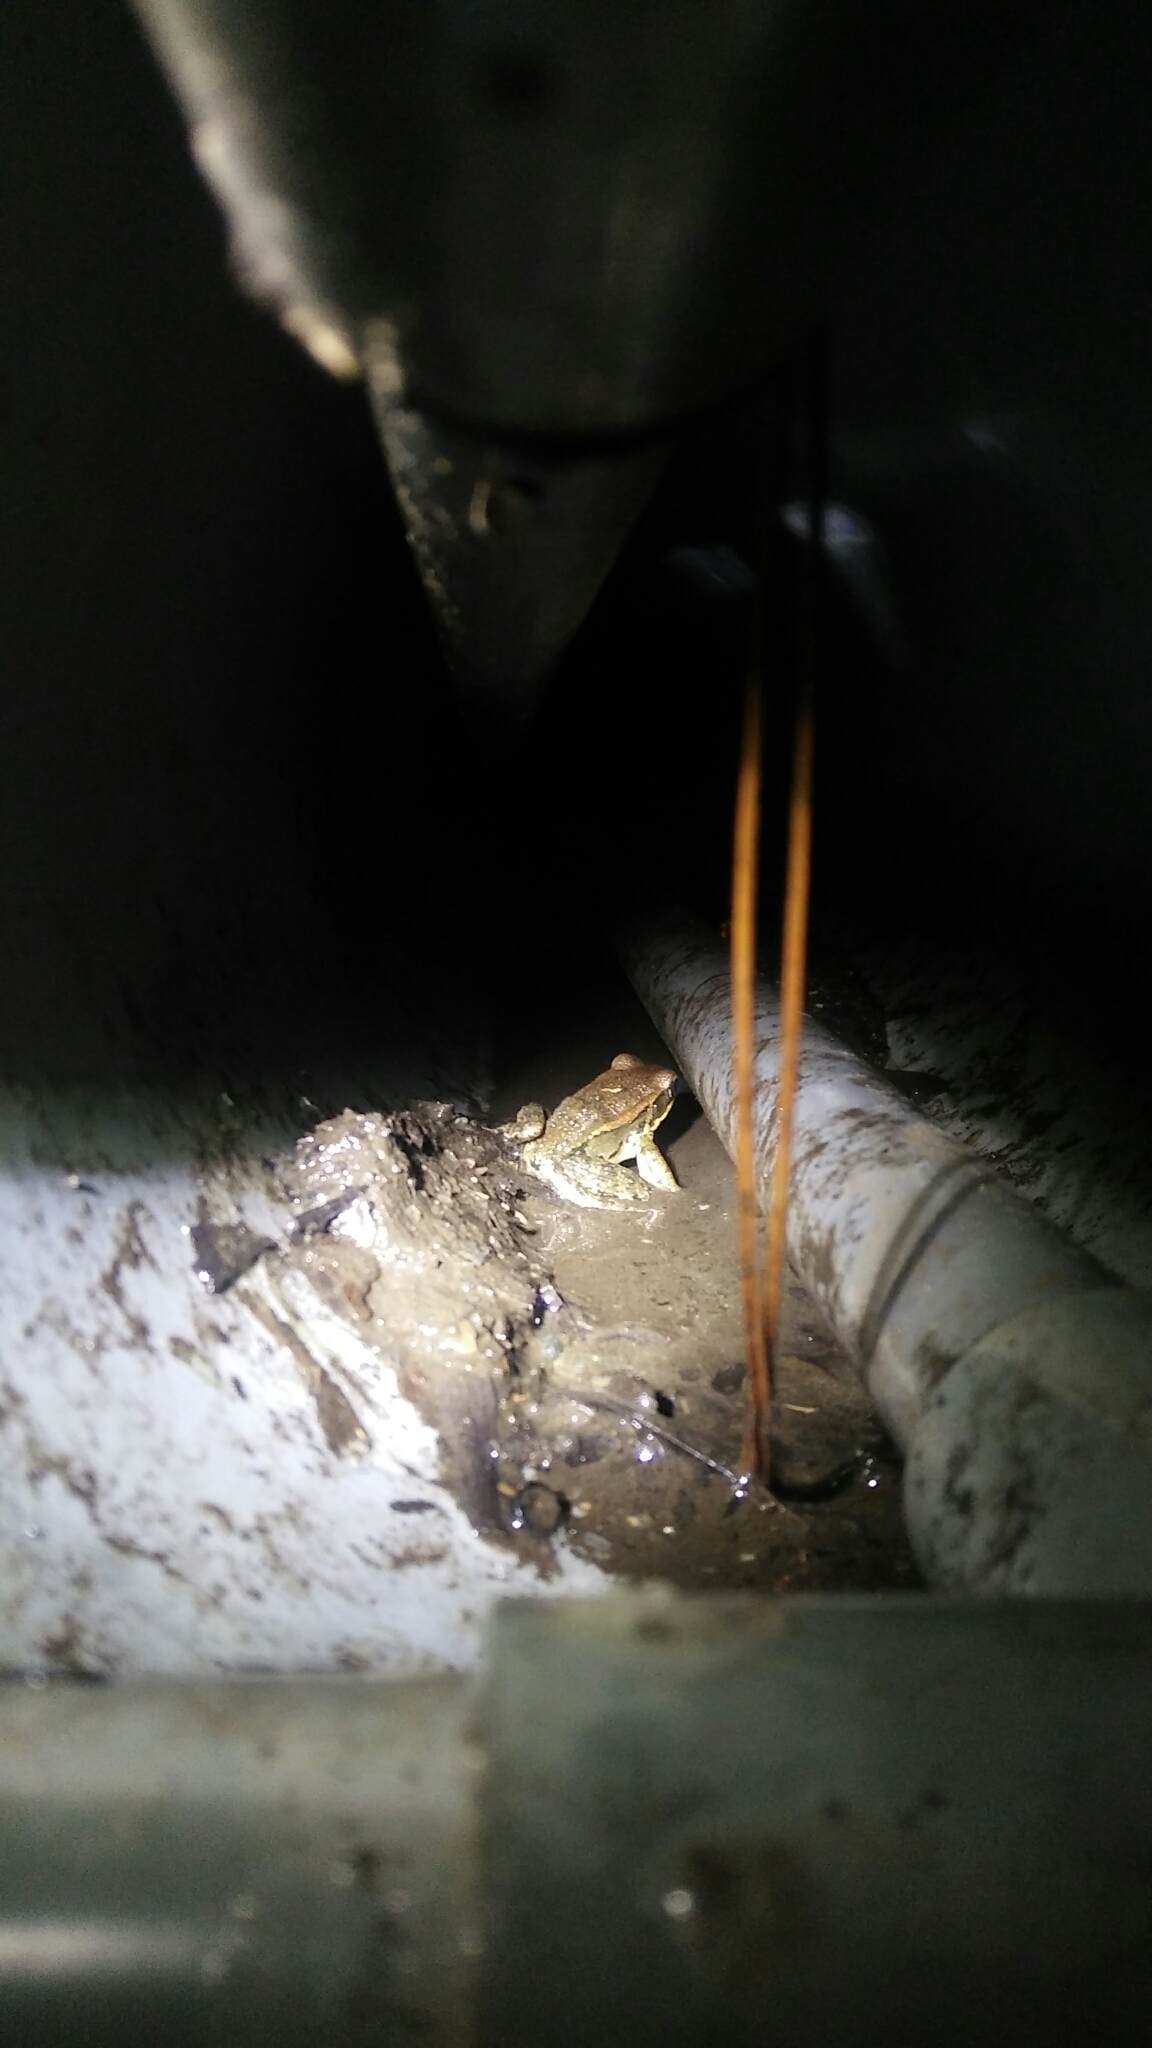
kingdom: Animalia
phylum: Chordata
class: Amphibia
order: Anura
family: Ranidae
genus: Hylarana
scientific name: Hylarana latouchii
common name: Broad-folded frog
